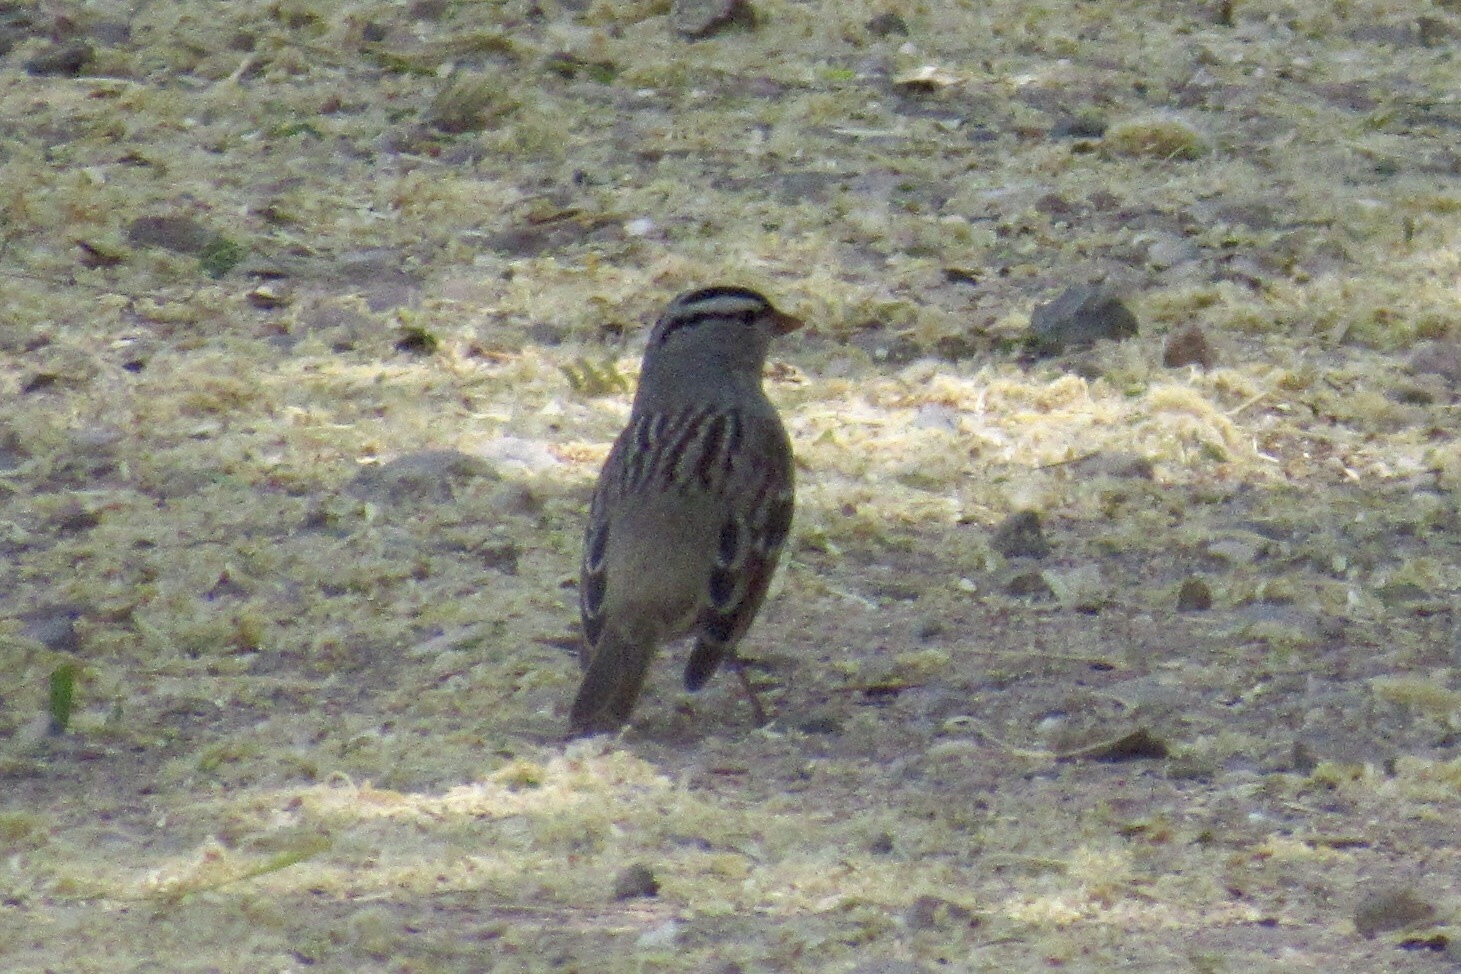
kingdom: Animalia
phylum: Chordata
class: Aves
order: Passeriformes
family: Passerellidae
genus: Zonotrichia
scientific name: Zonotrichia leucophrys
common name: White-crowned sparrow
